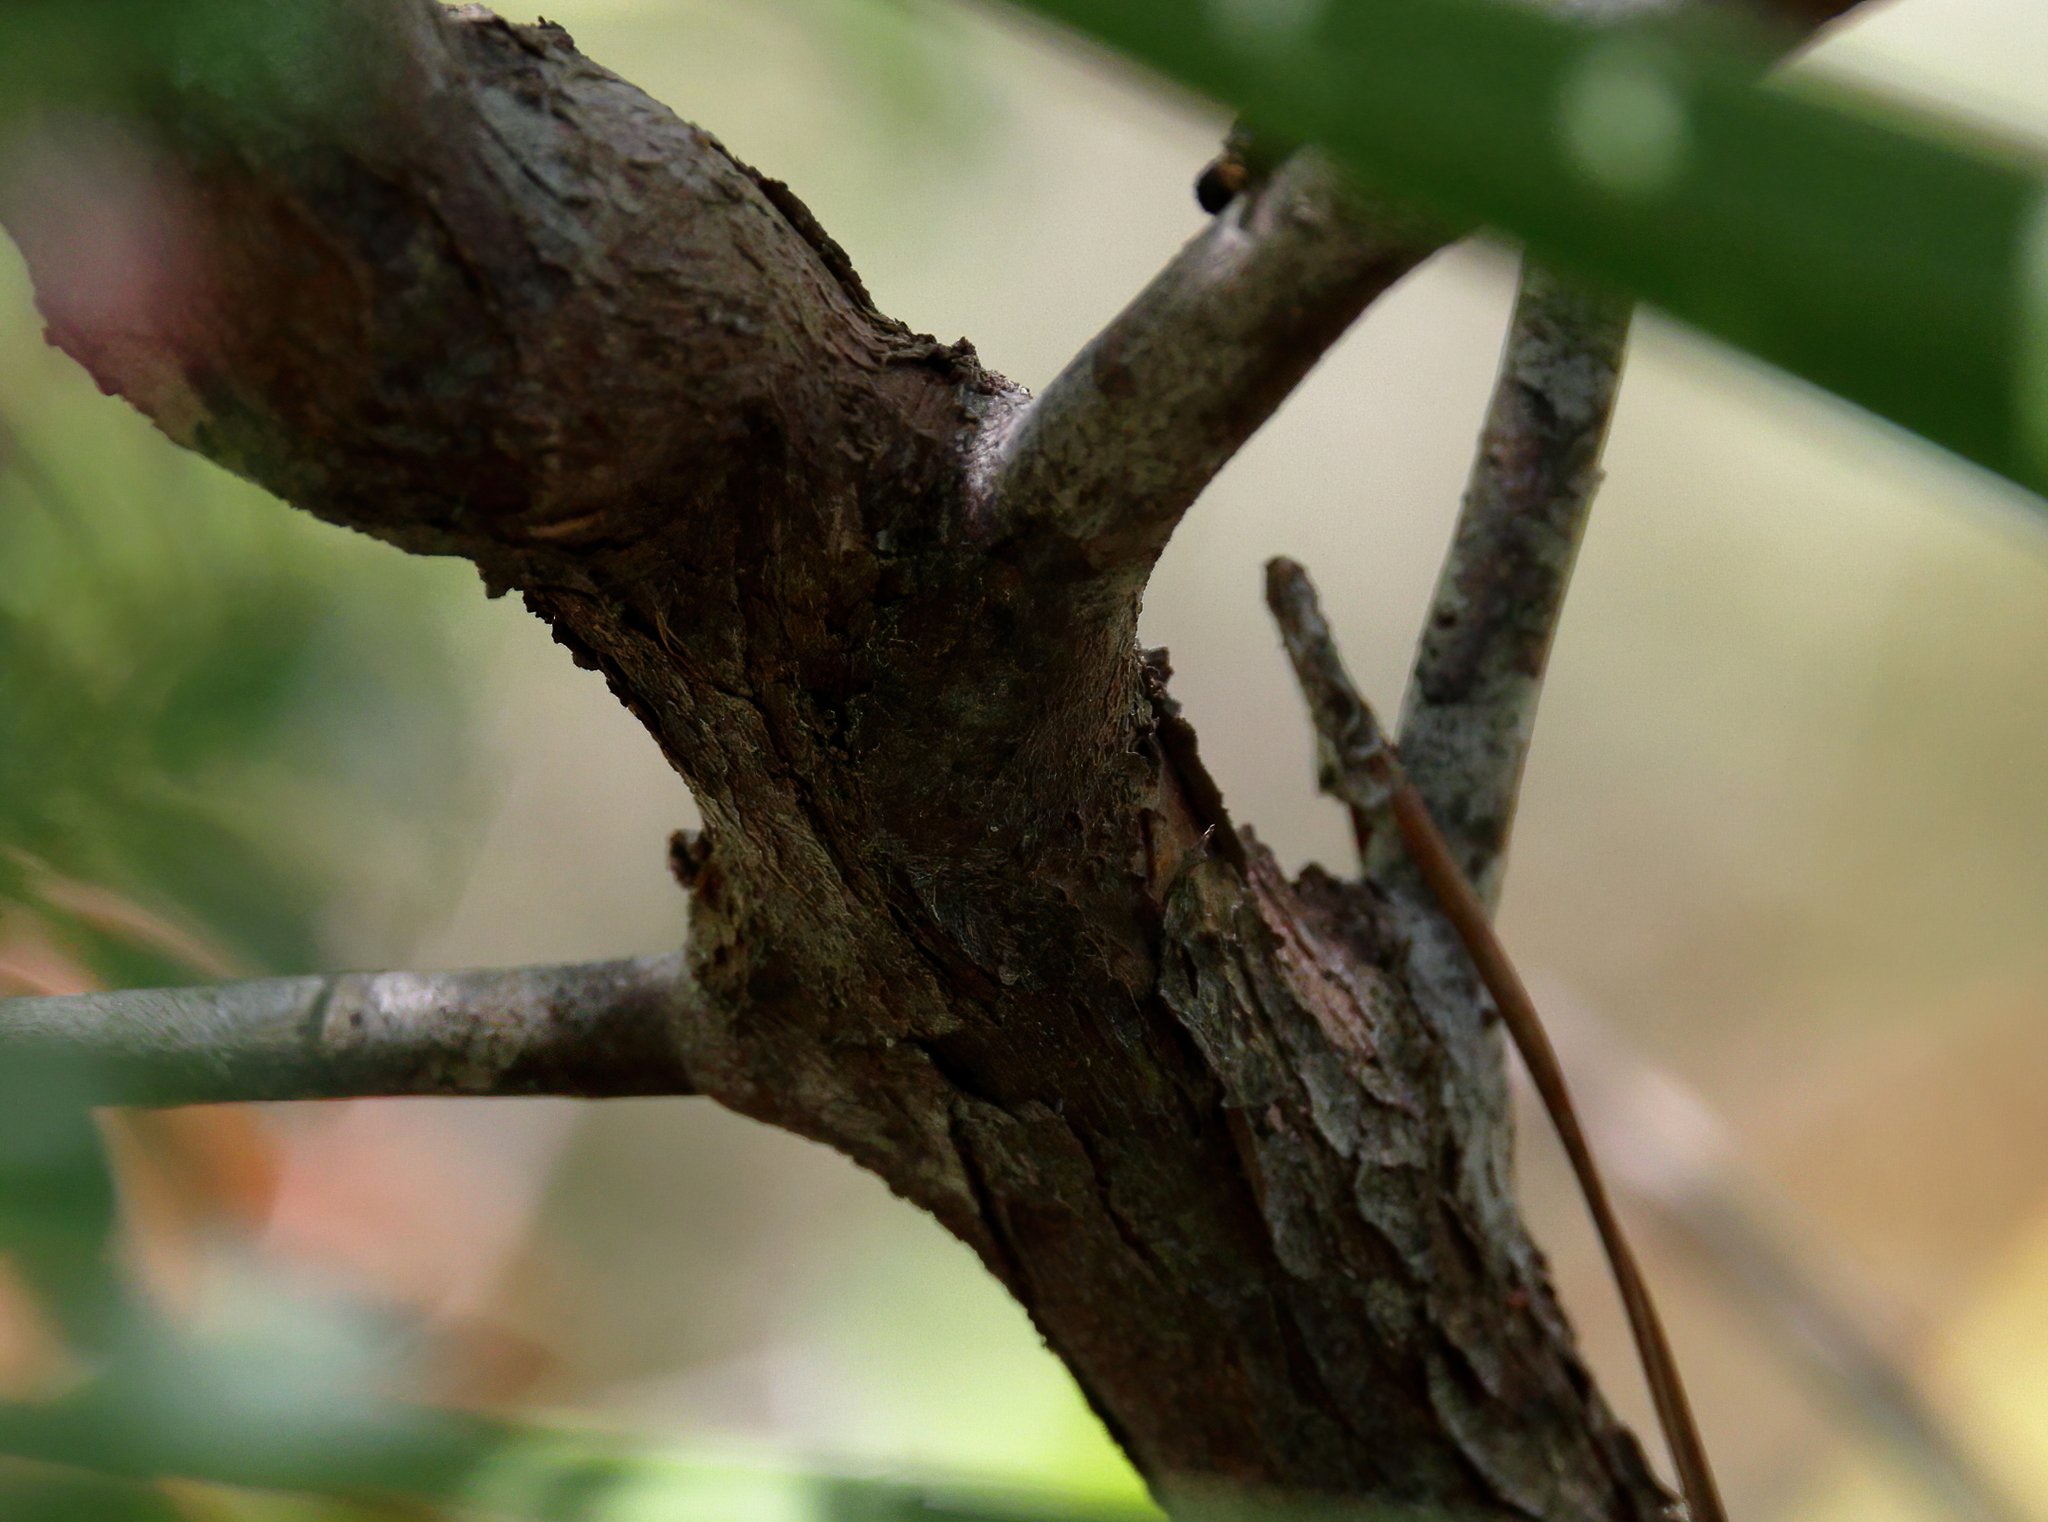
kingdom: Plantae
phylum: Tracheophyta
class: Magnoliopsida
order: Ericales
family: Ericaceae
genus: Vaccinium
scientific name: Vaccinium arboreum
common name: Farkleberry
